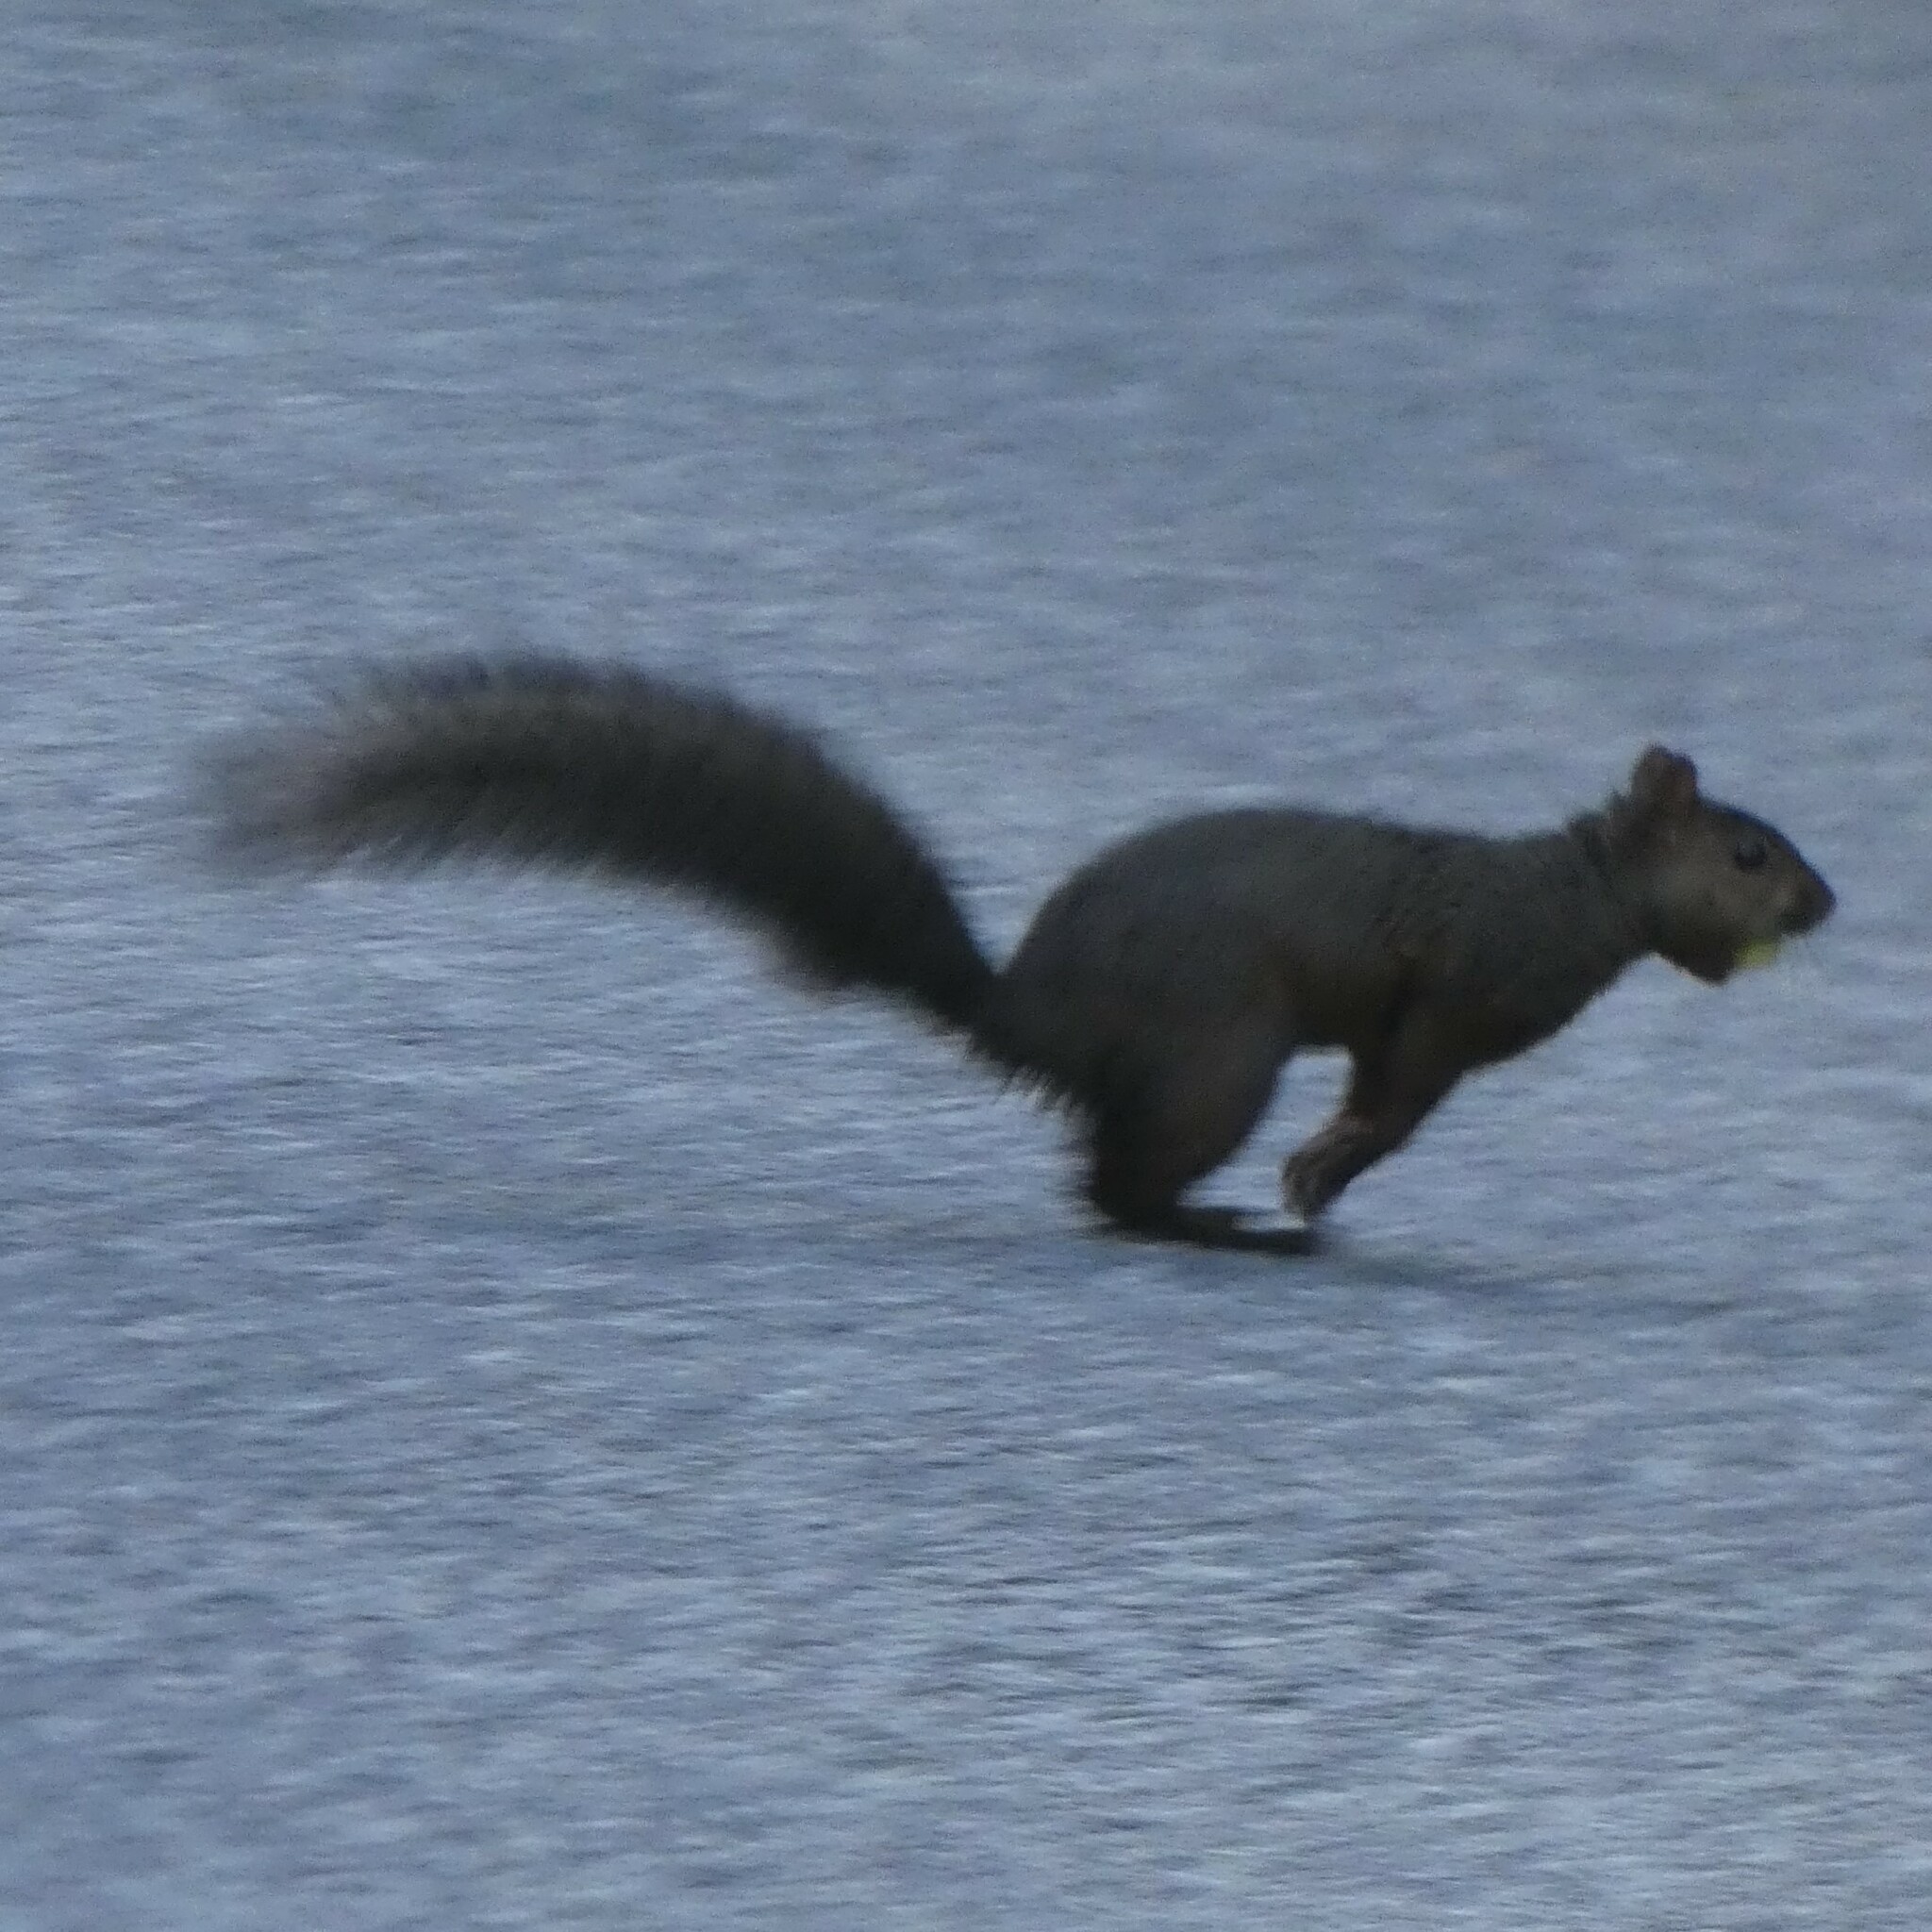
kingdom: Animalia
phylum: Chordata
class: Mammalia
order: Rodentia
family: Sciuridae
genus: Sciurus
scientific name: Sciurus carolinensis
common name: Eastern gray squirrel
